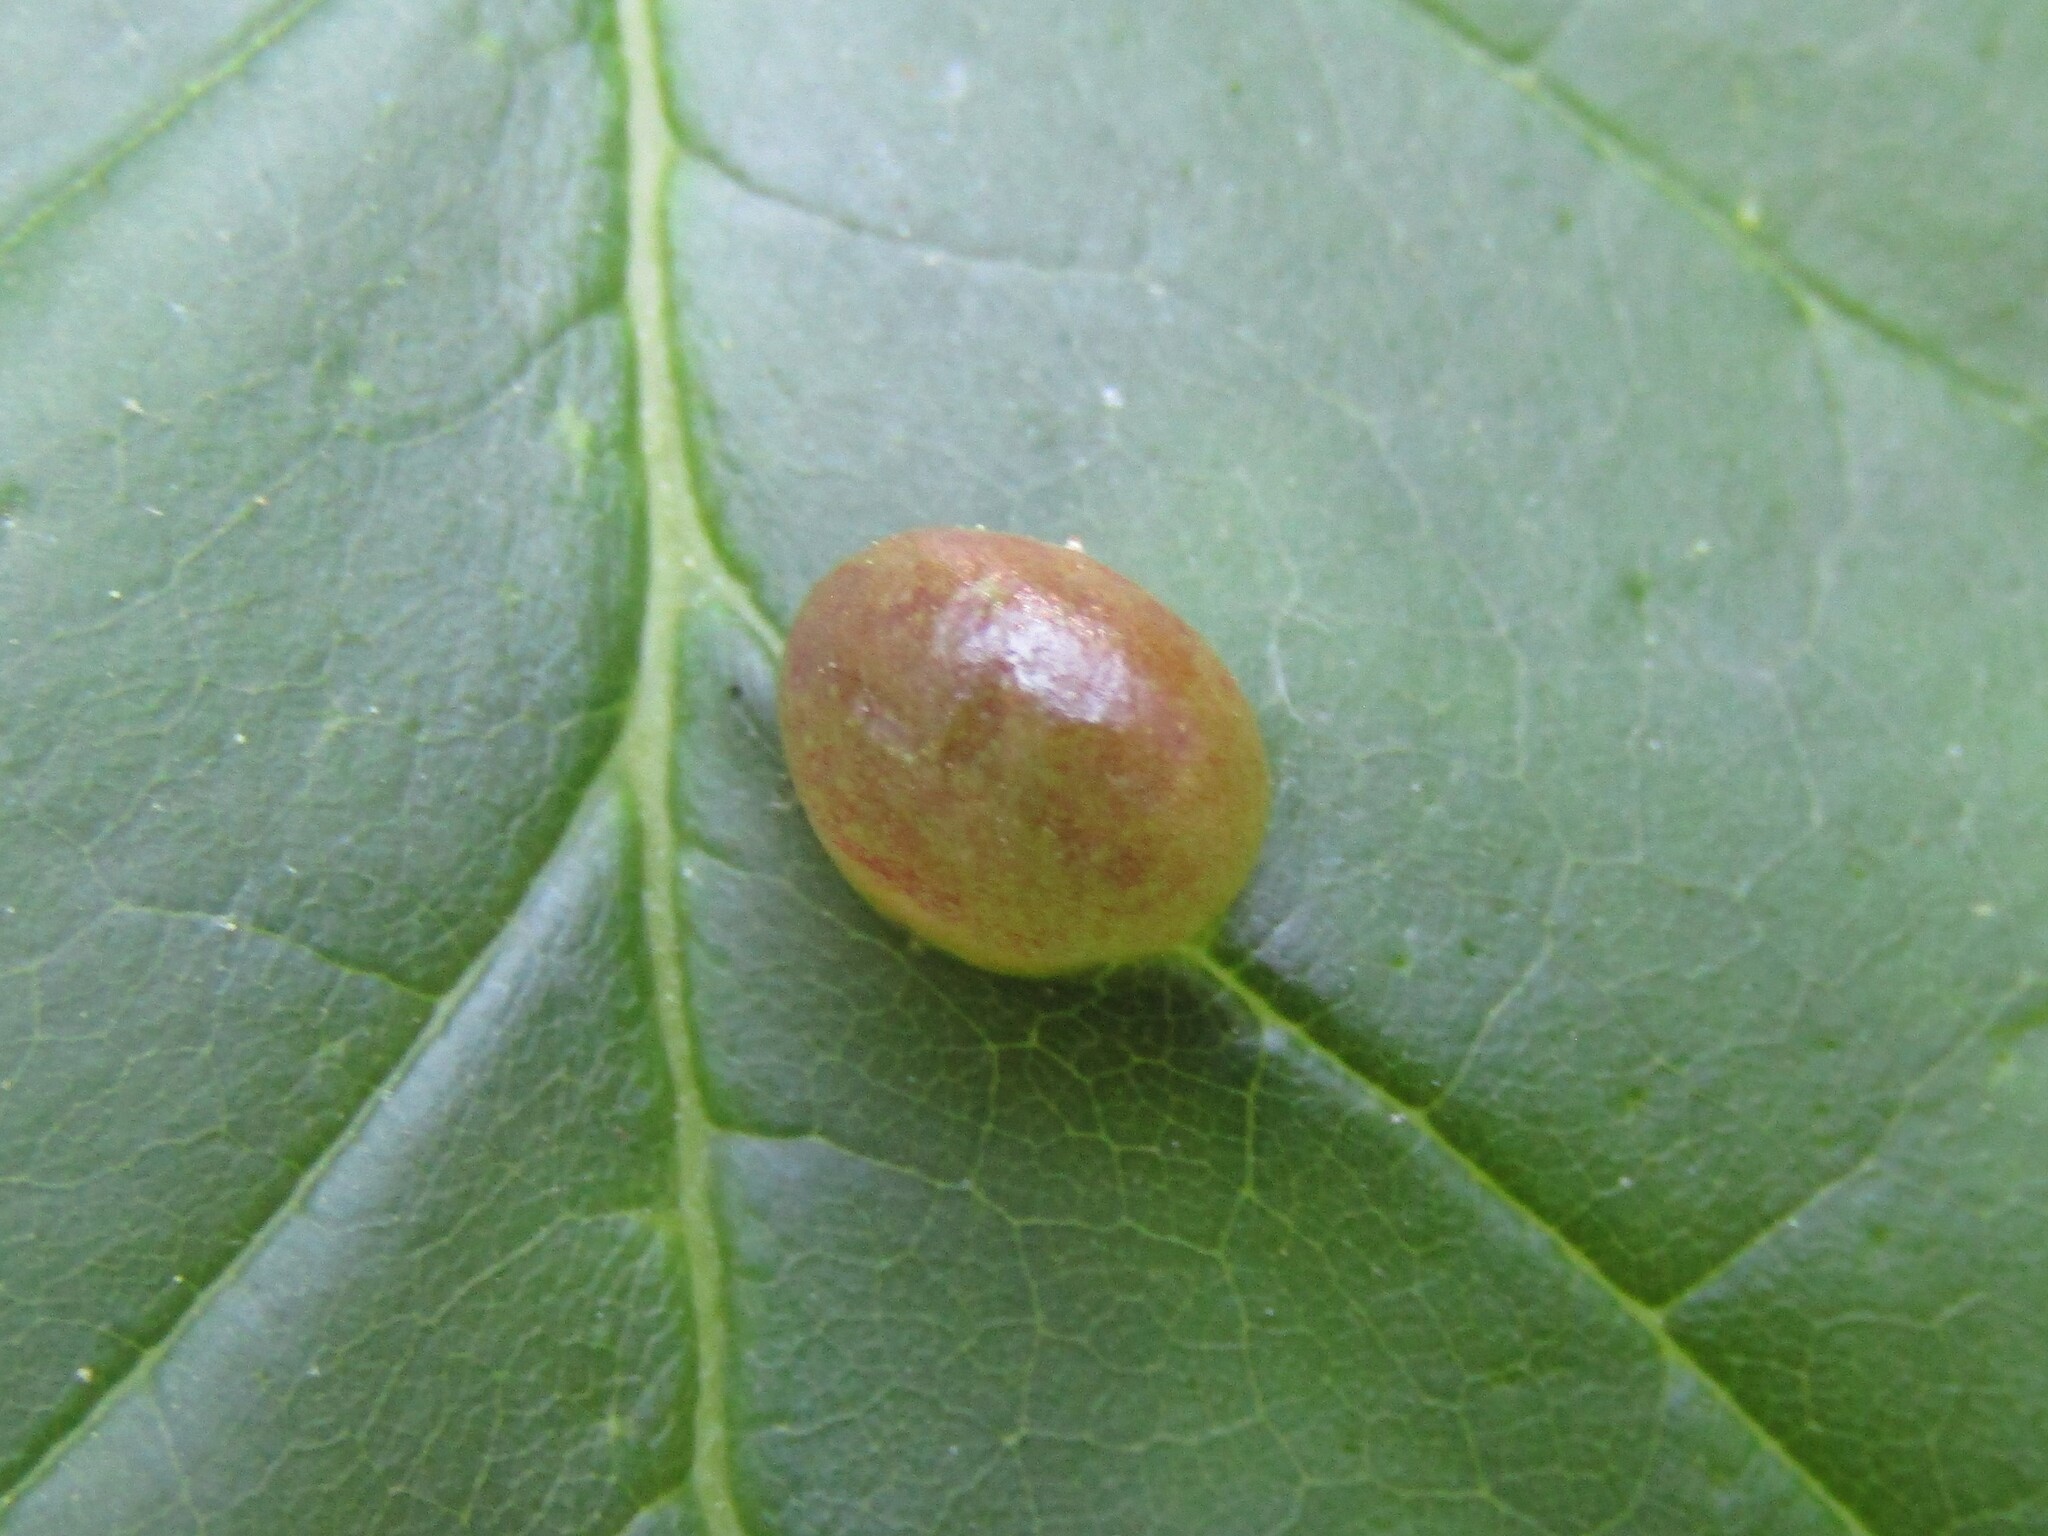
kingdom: Animalia
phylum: Arthropoda
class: Insecta
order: Diptera
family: Cecidomyiidae
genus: Dasineura
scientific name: Dasineura pellex
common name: Ash bullet gall midge
